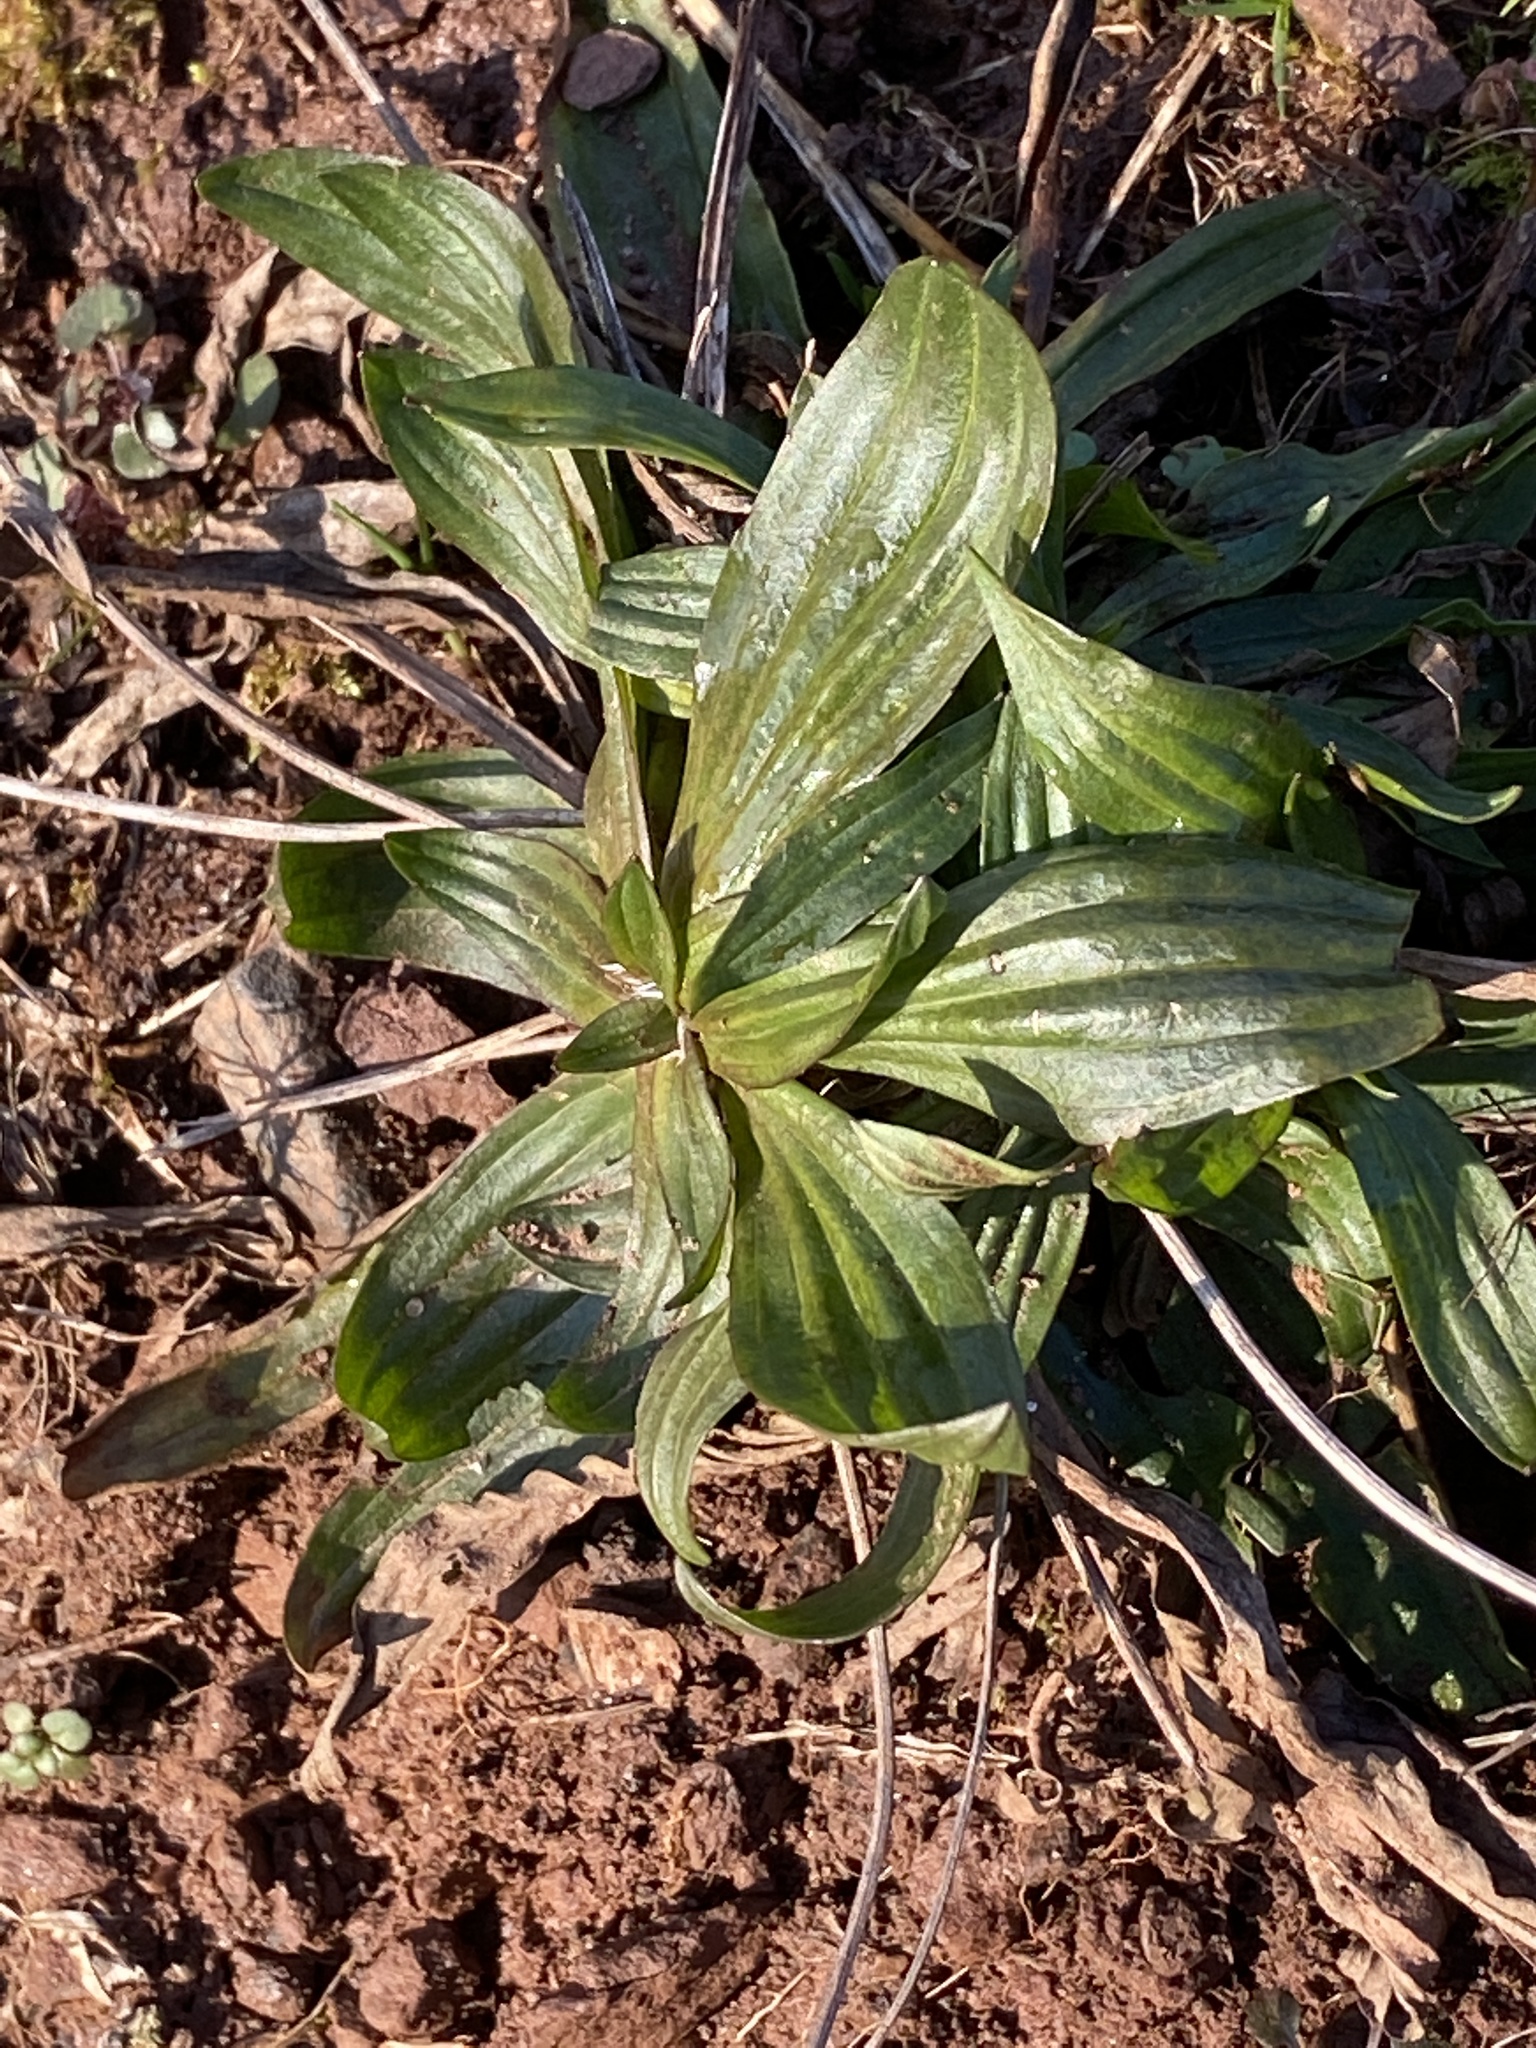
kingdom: Plantae
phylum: Tracheophyta
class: Magnoliopsida
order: Lamiales
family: Plantaginaceae
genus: Plantago
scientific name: Plantago lanceolata
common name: Ribwort plantain
